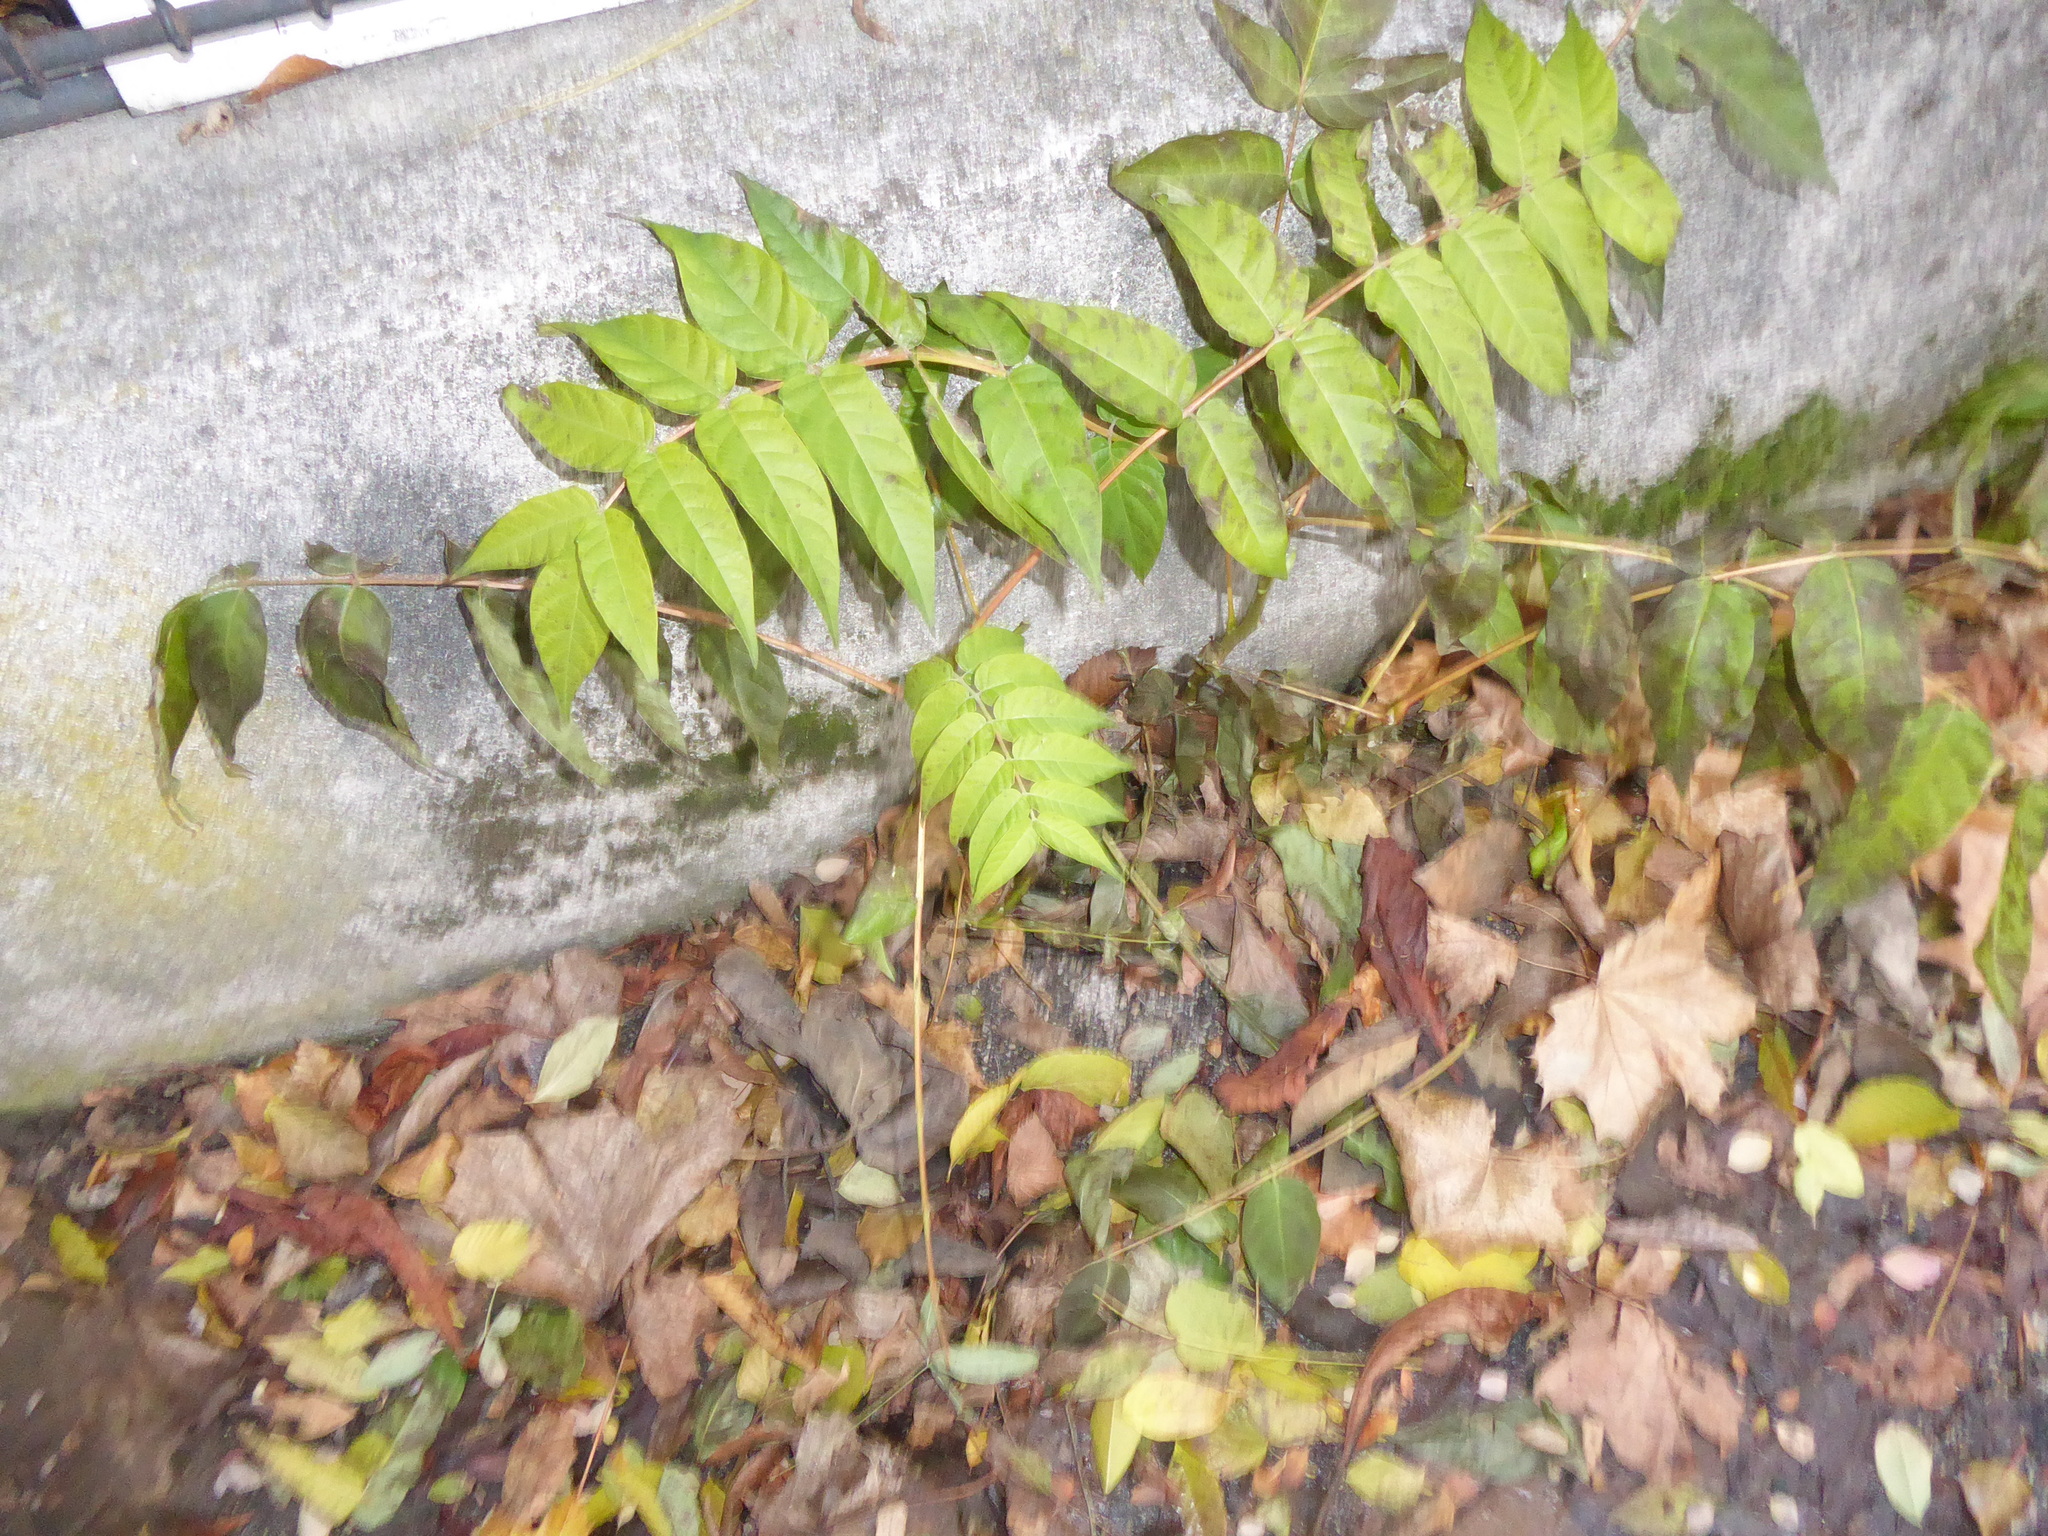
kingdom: Plantae
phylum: Tracheophyta
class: Magnoliopsida
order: Sapindales
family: Simaroubaceae
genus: Ailanthus
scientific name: Ailanthus altissima
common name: Tree-of-heaven
